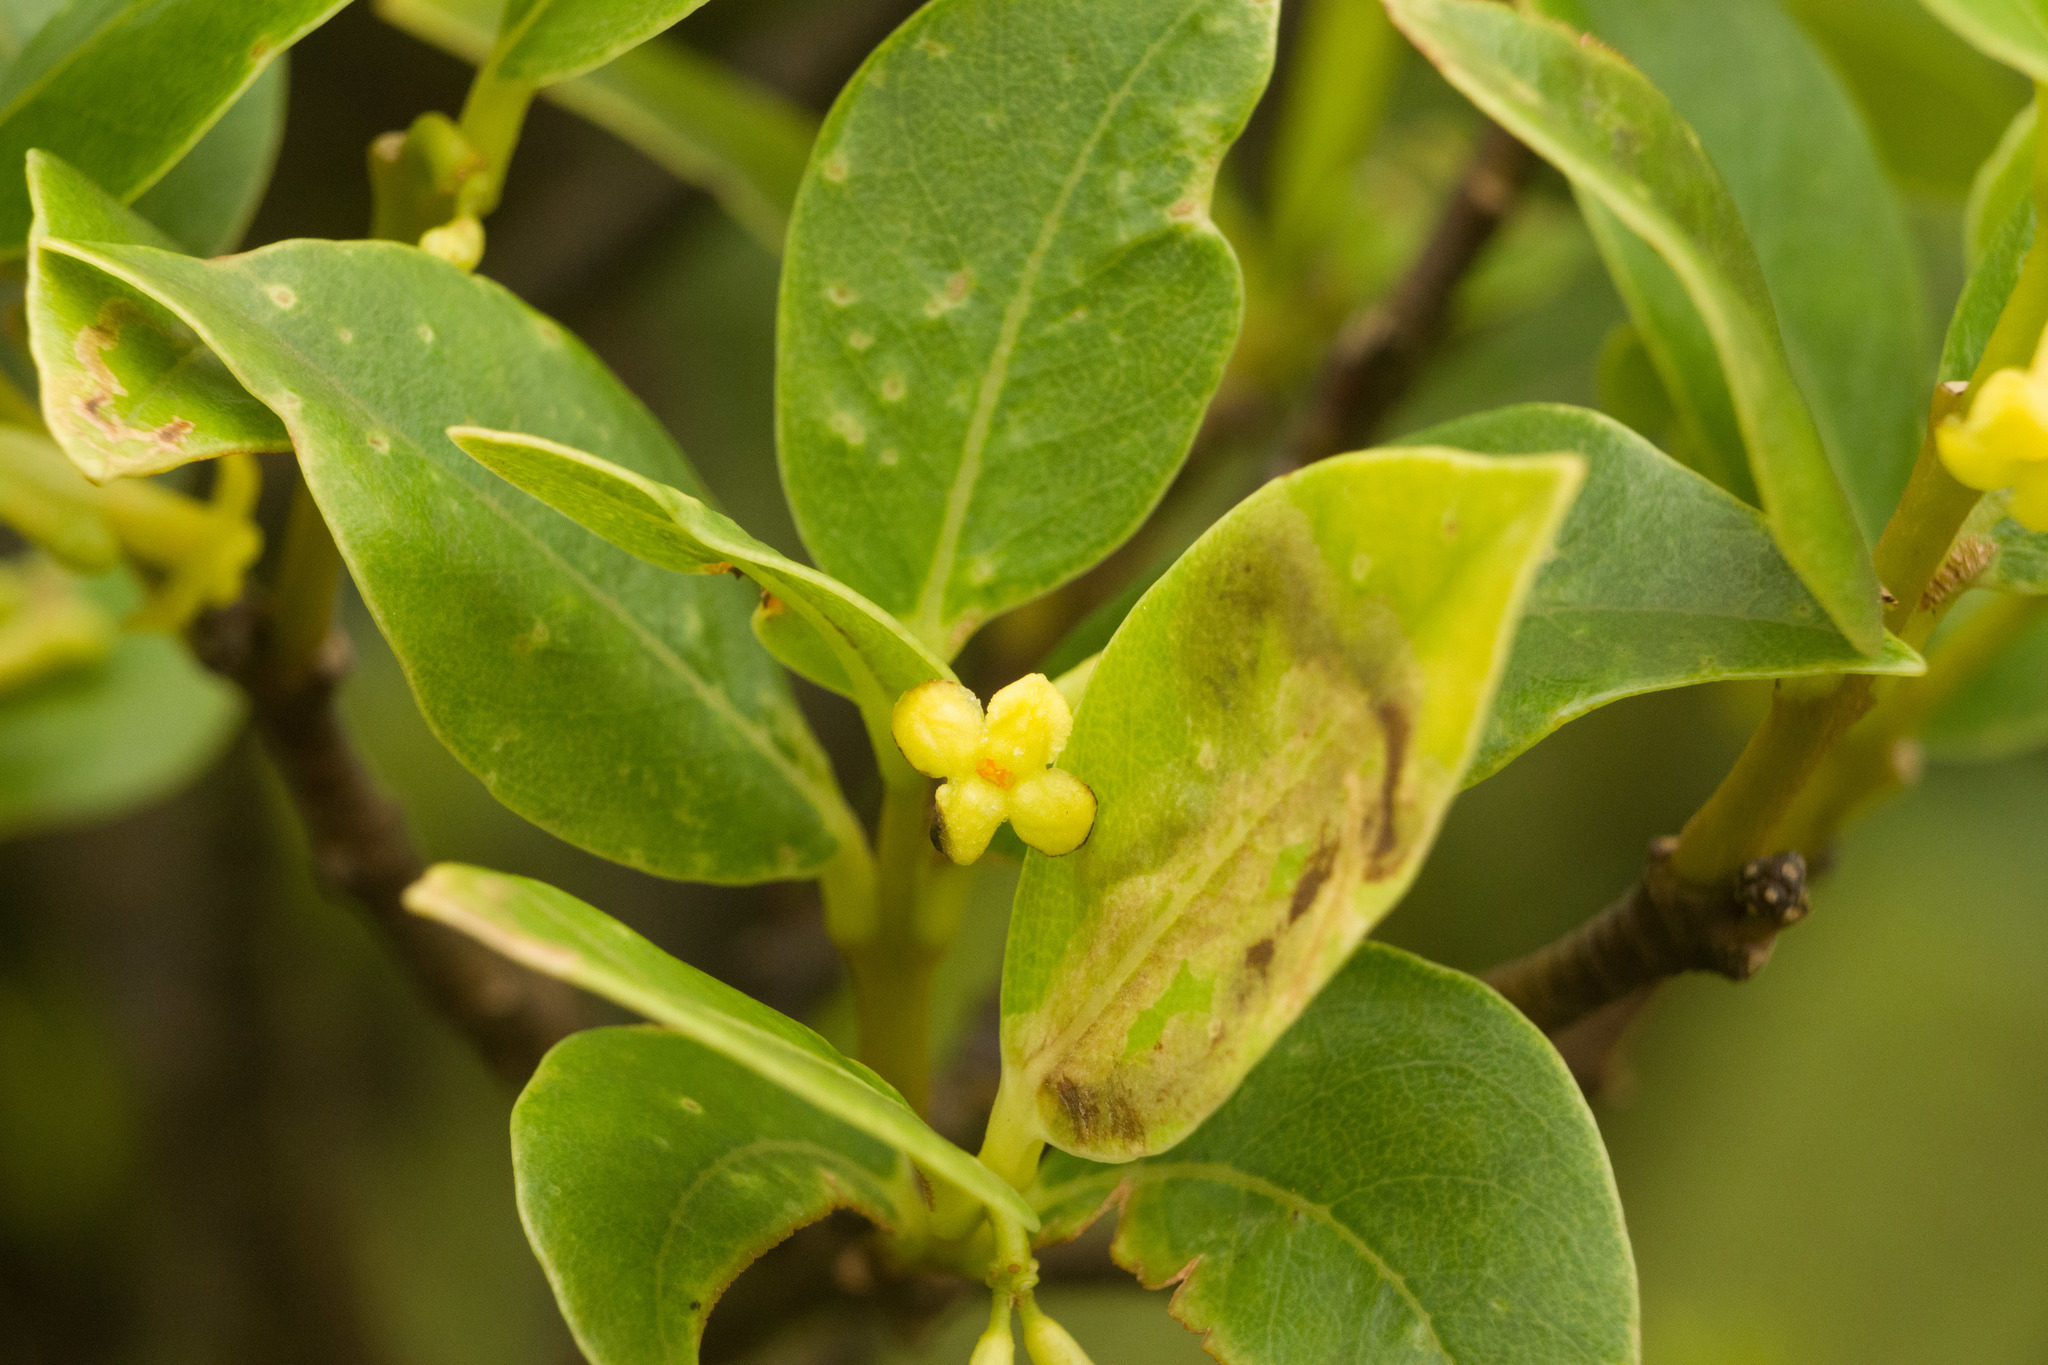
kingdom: Plantae
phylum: Tracheophyta
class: Magnoliopsida
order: Malvales
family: Thymelaeaceae
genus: Wikstroemia
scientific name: Wikstroemia oahuensis
